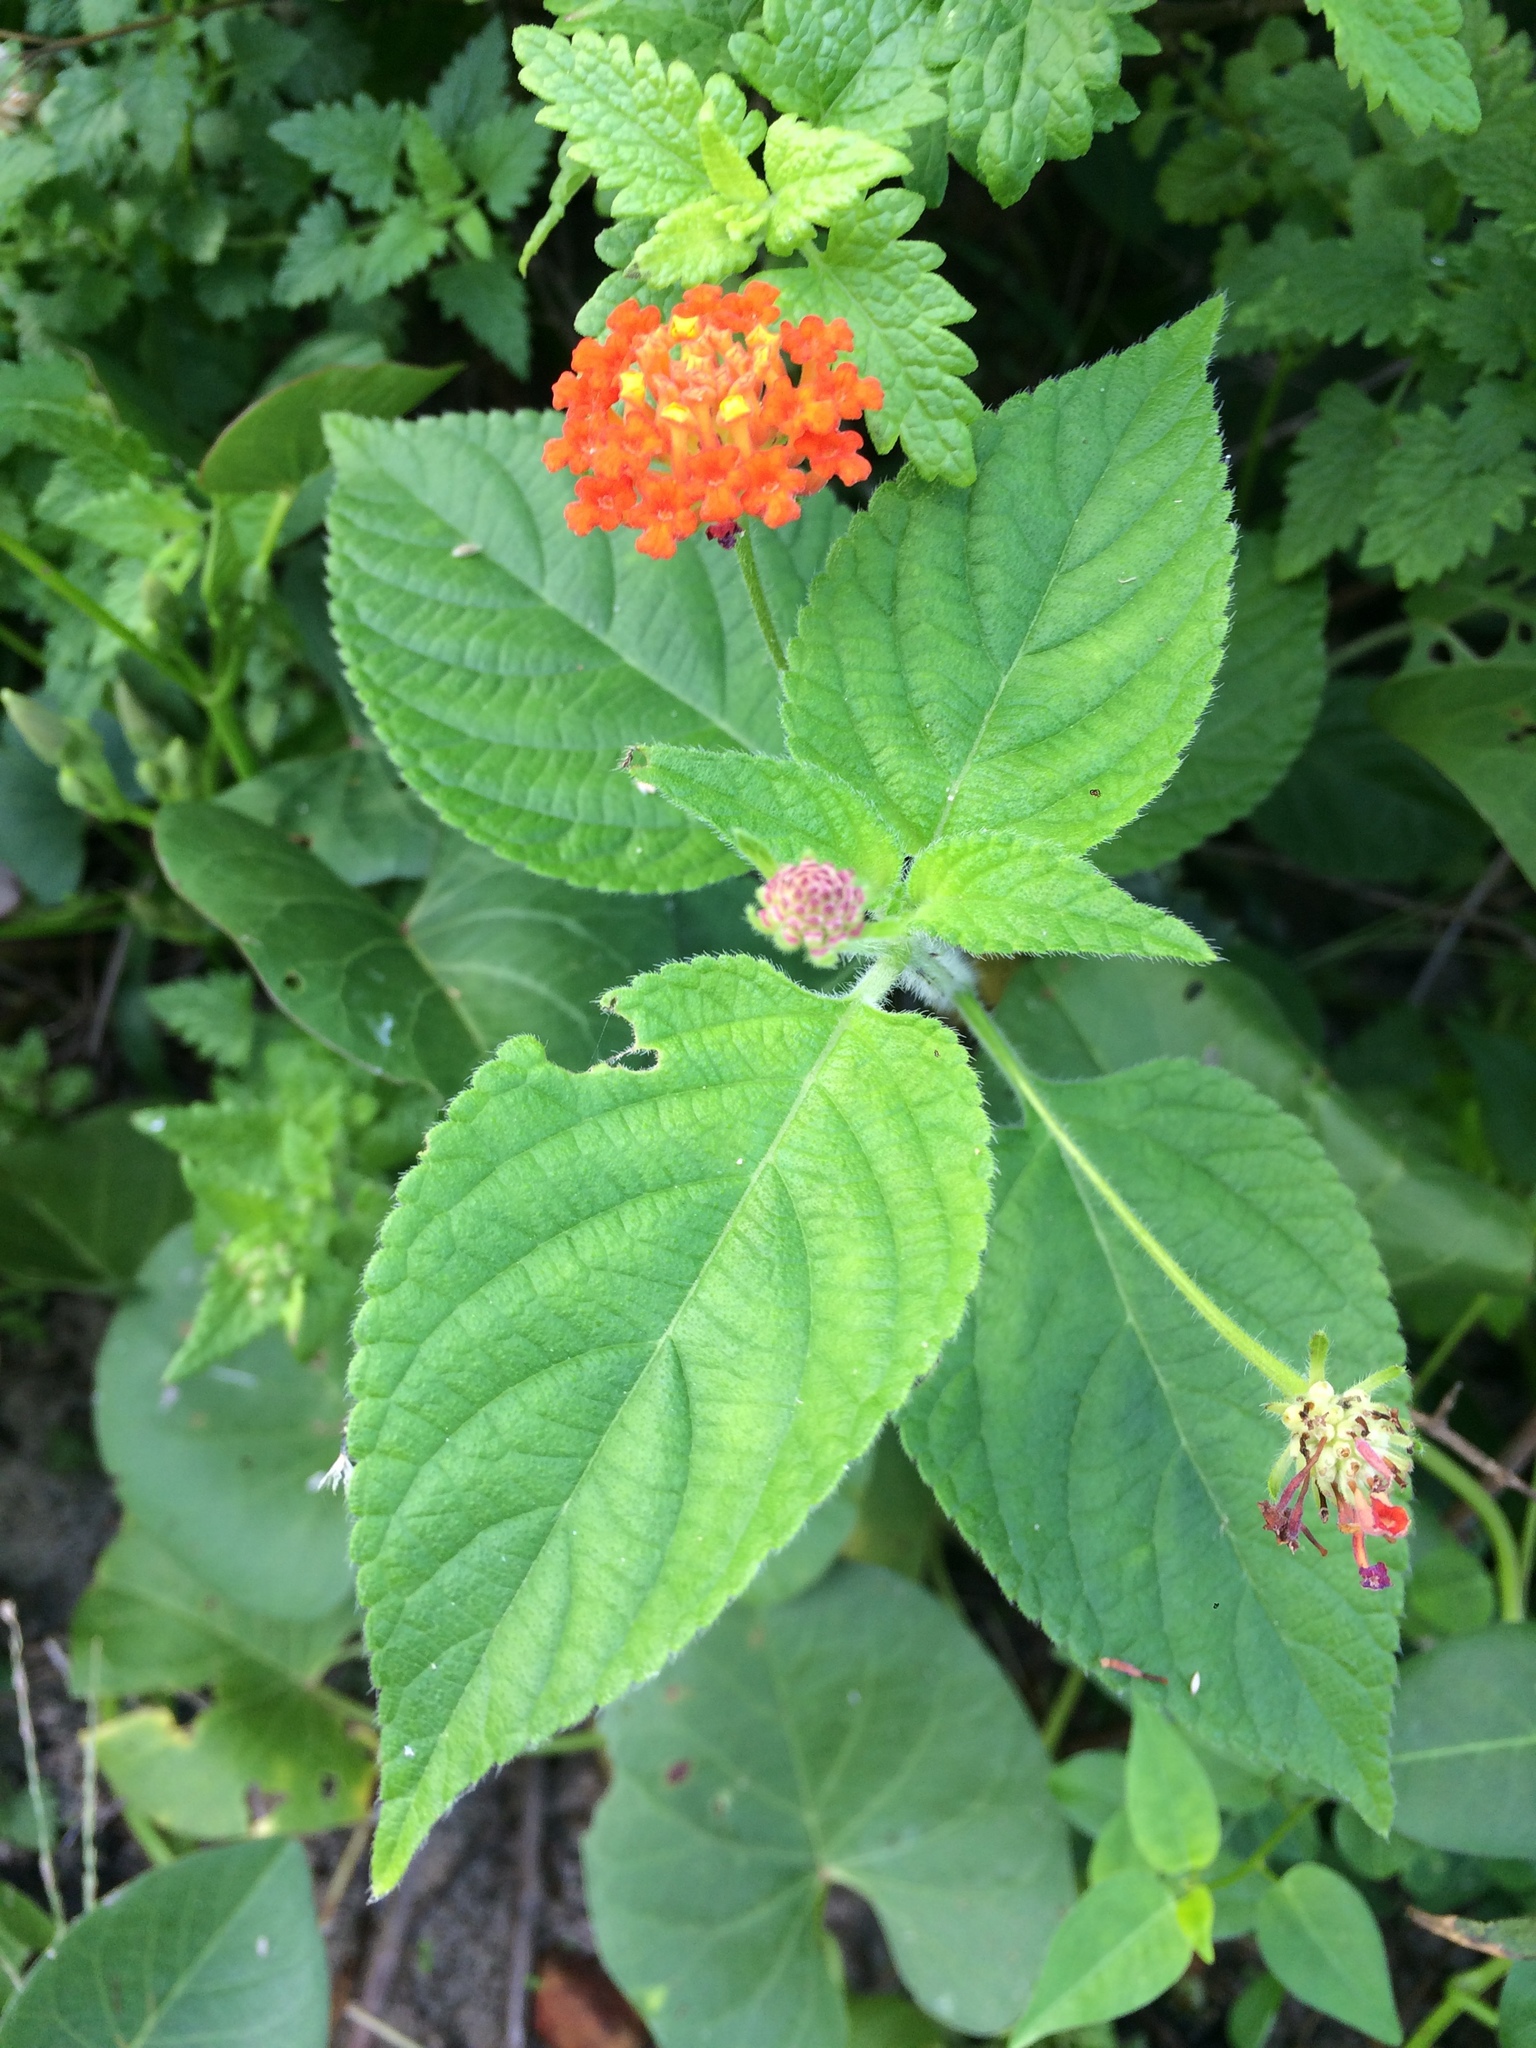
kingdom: Plantae
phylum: Tracheophyta
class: Magnoliopsida
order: Lamiales
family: Verbenaceae
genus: Lantana
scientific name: Lantana camara
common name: Lantana
